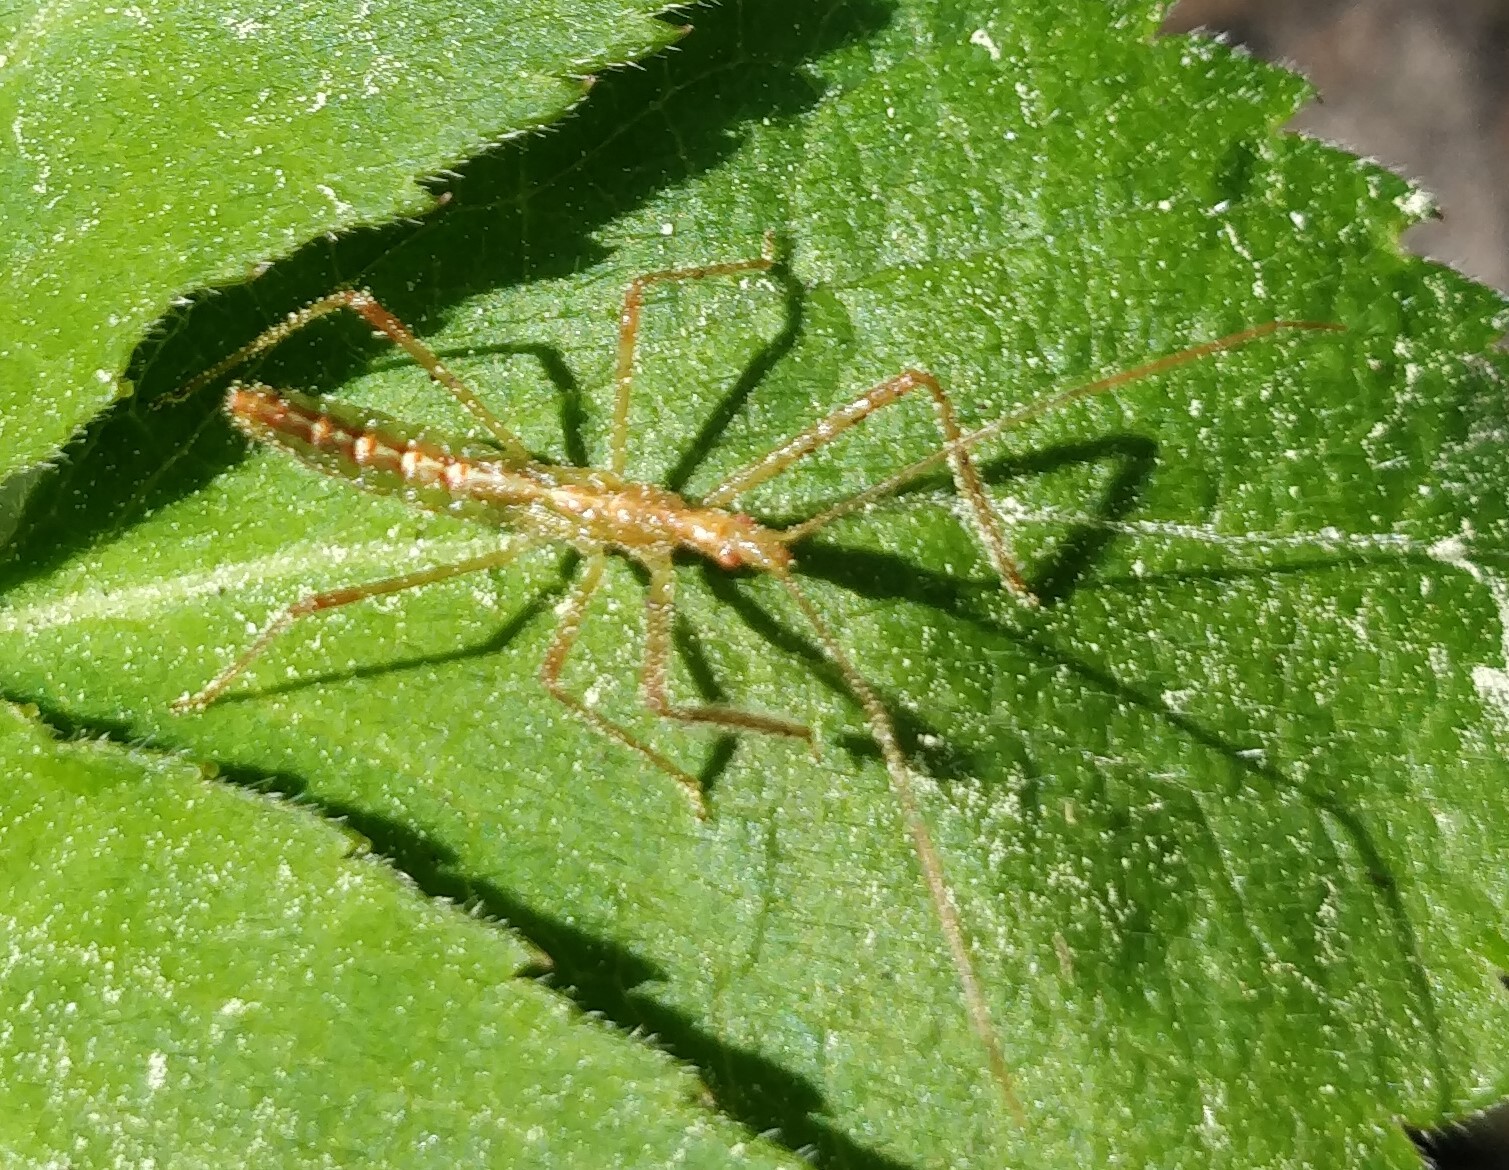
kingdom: Animalia
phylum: Arthropoda
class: Insecta
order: Hemiptera
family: Reduviidae
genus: Zelus
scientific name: Zelus luridus
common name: Pale green assassin bug
